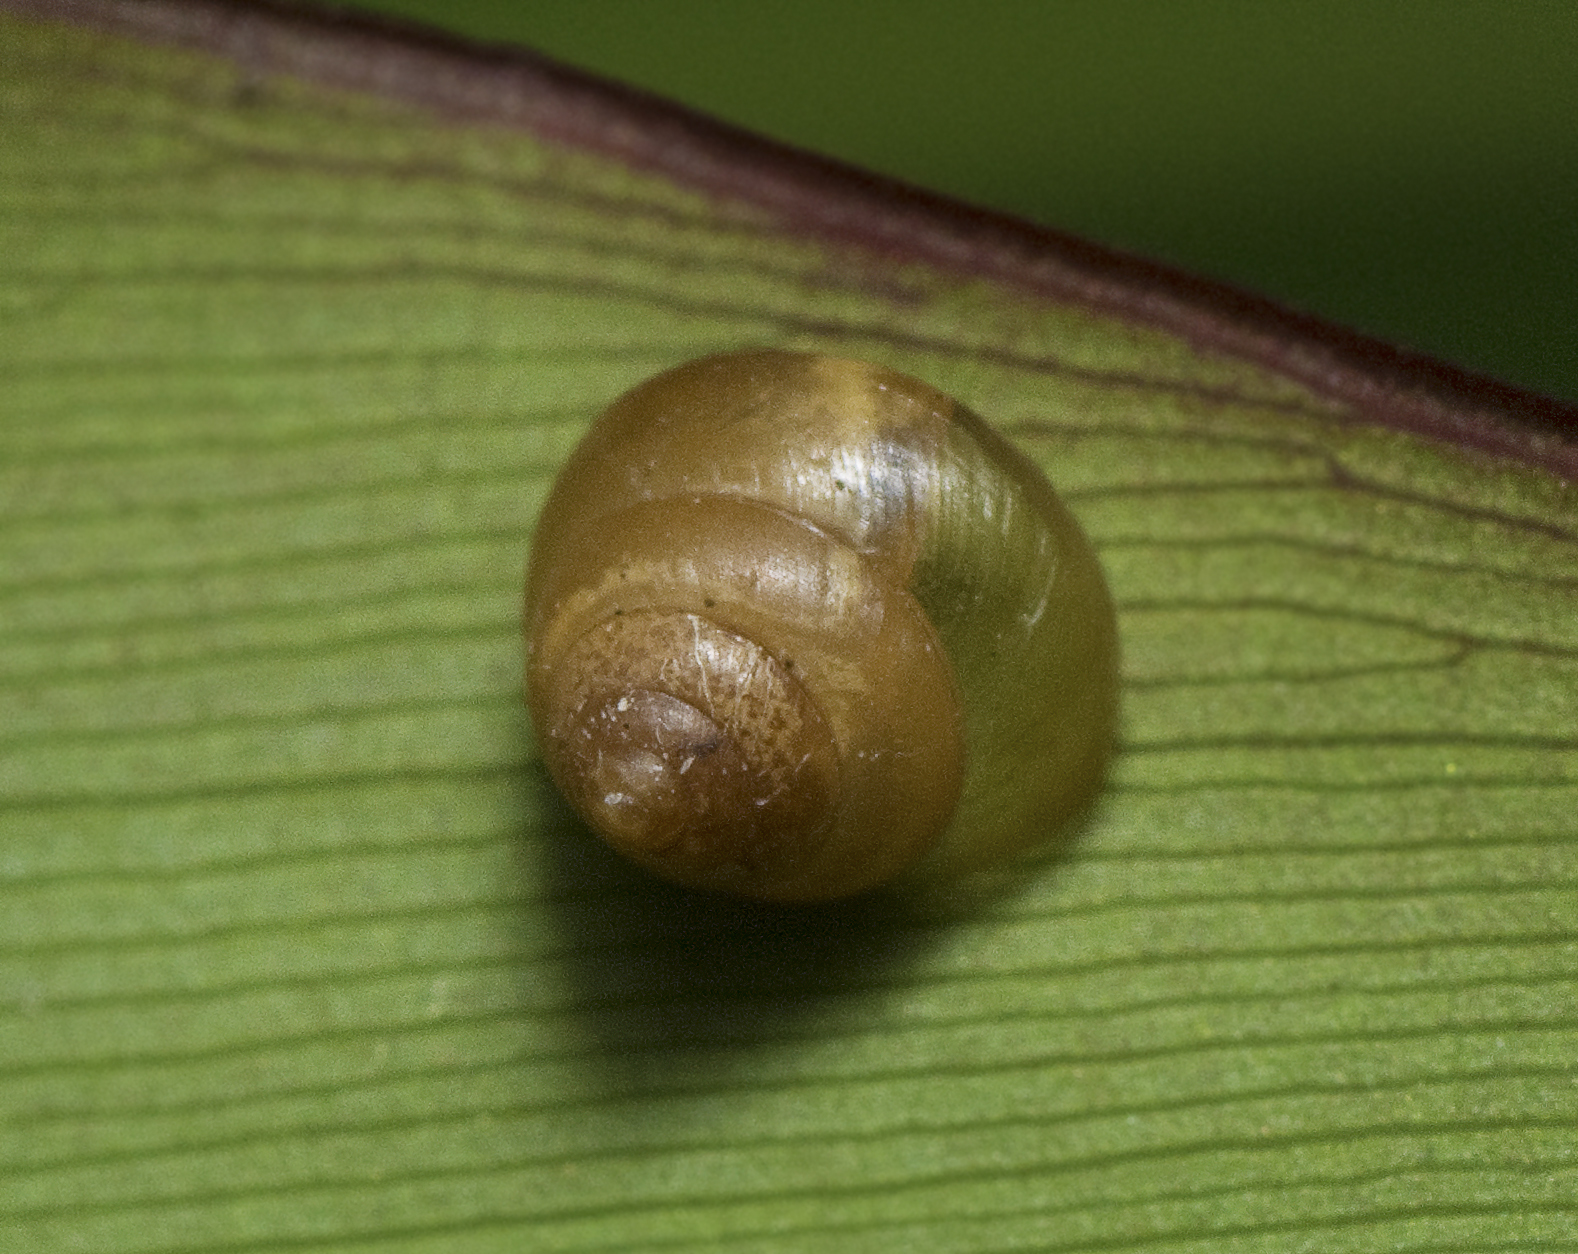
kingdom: Animalia
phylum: Mollusca
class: Gastropoda
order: Stylommatophora
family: Euconulidae
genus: Coneuplecta
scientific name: Coneuplecta calculosa
